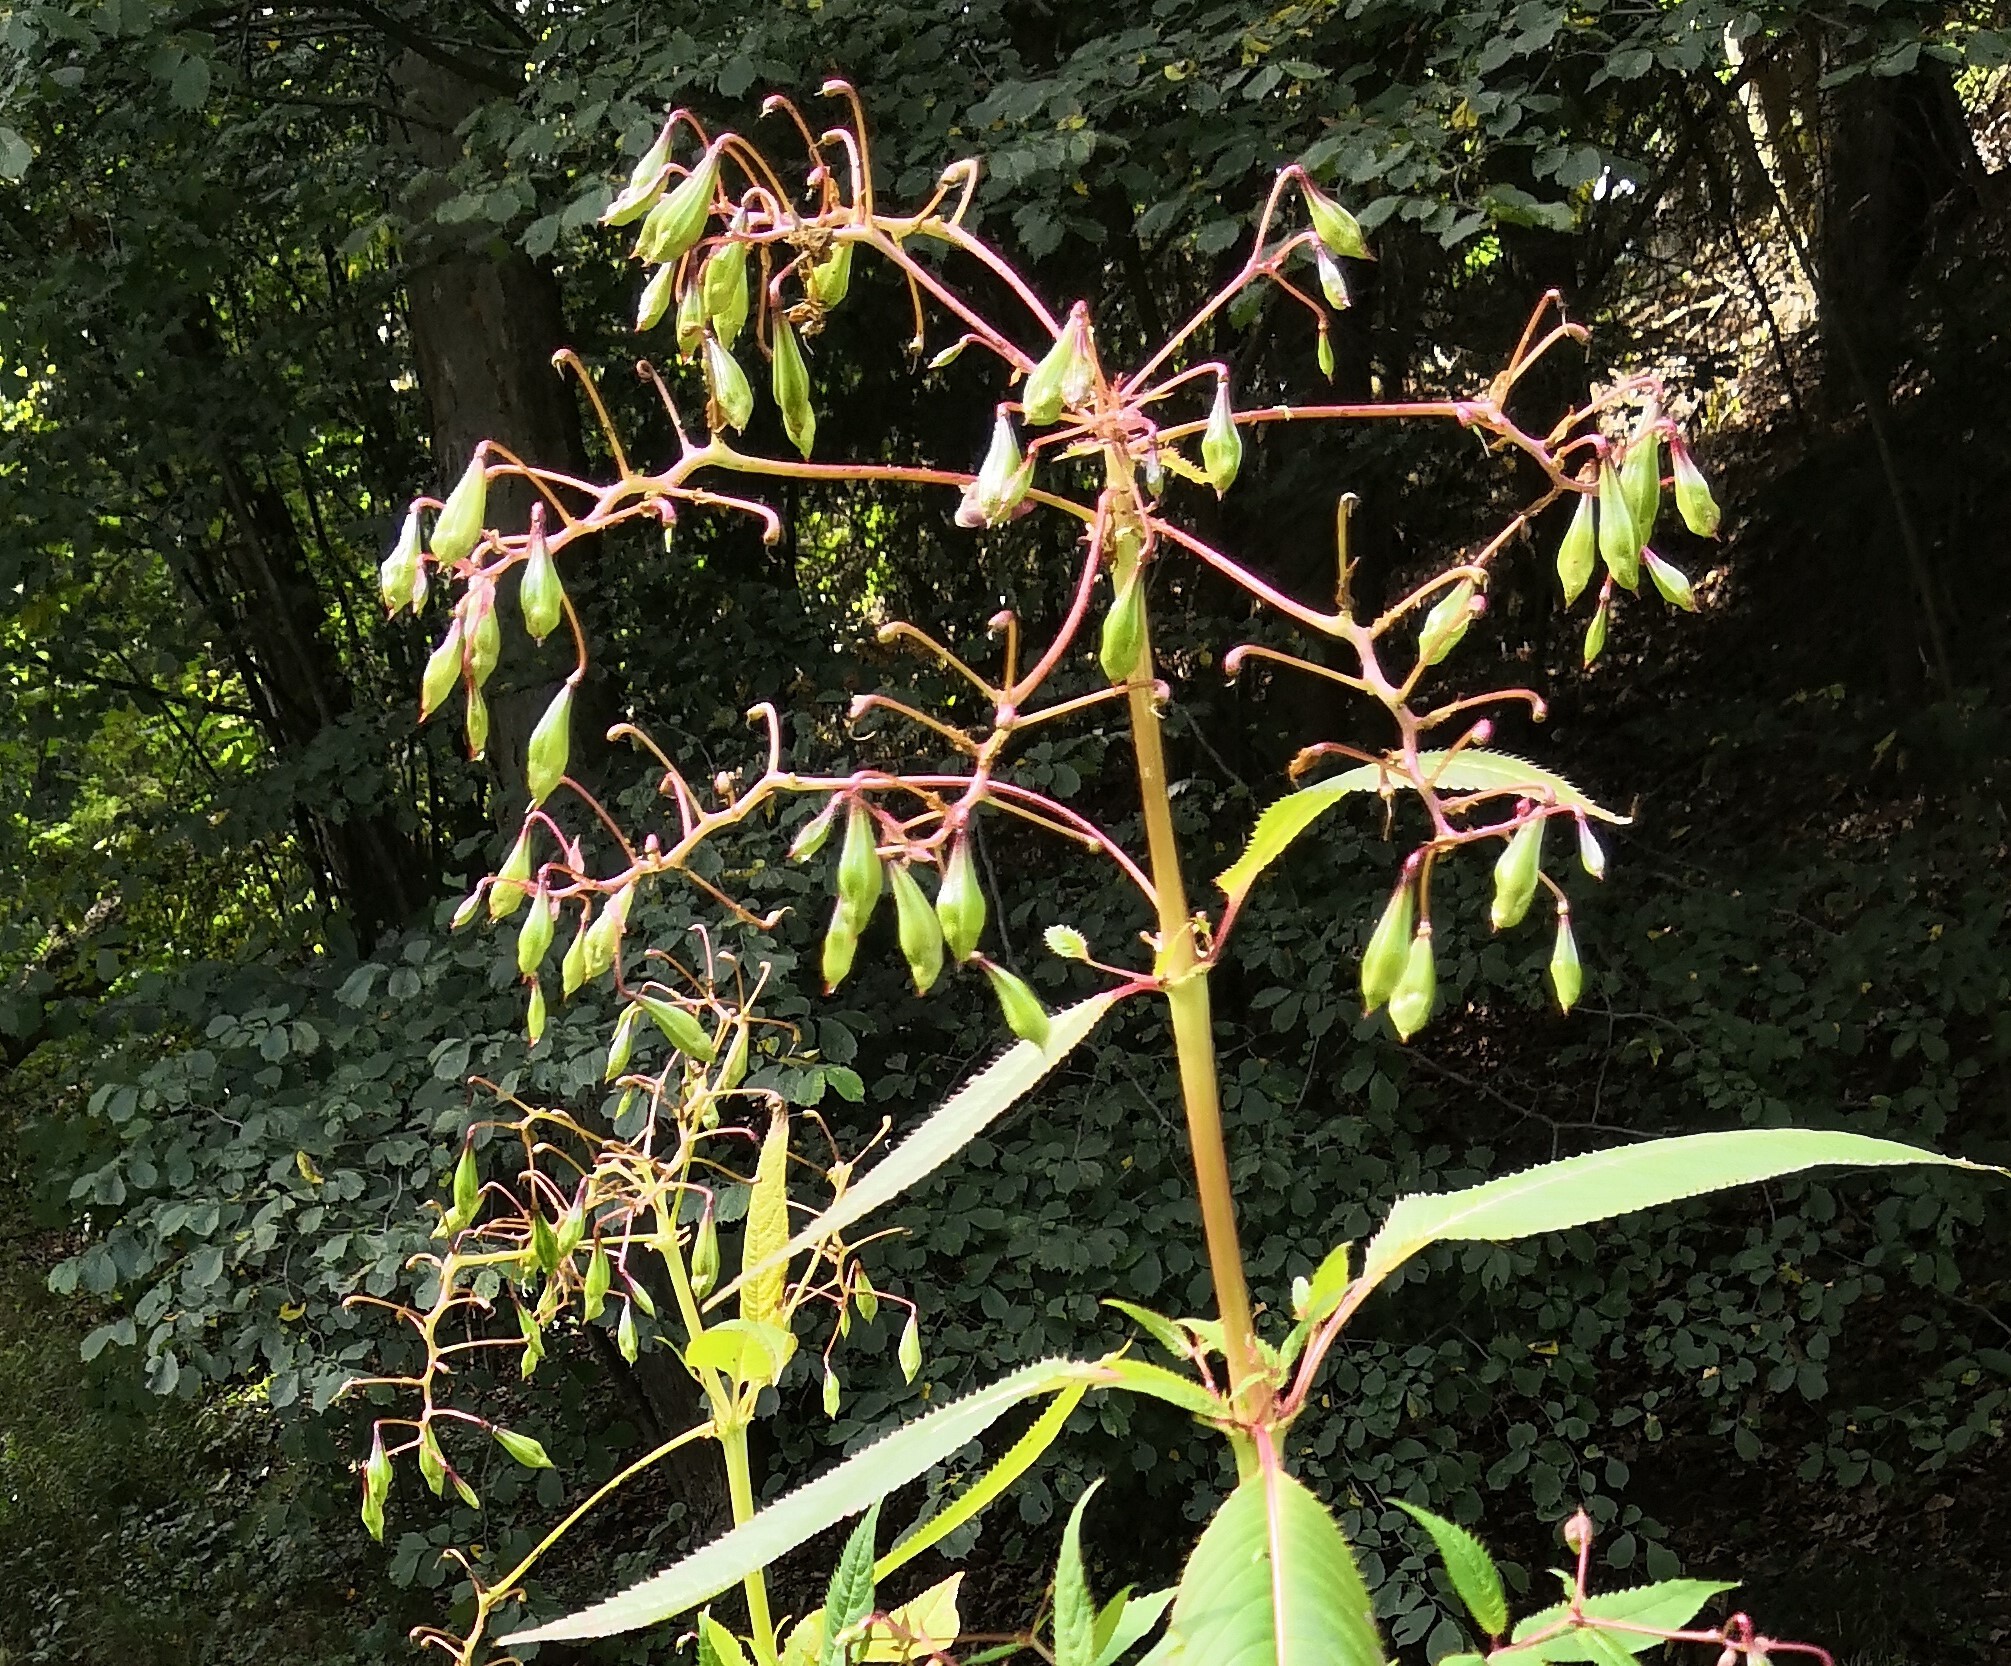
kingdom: Plantae
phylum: Tracheophyta
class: Magnoliopsida
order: Ericales
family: Balsaminaceae
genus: Impatiens
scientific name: Impatiens glandulifera
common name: Himalayan balsam
